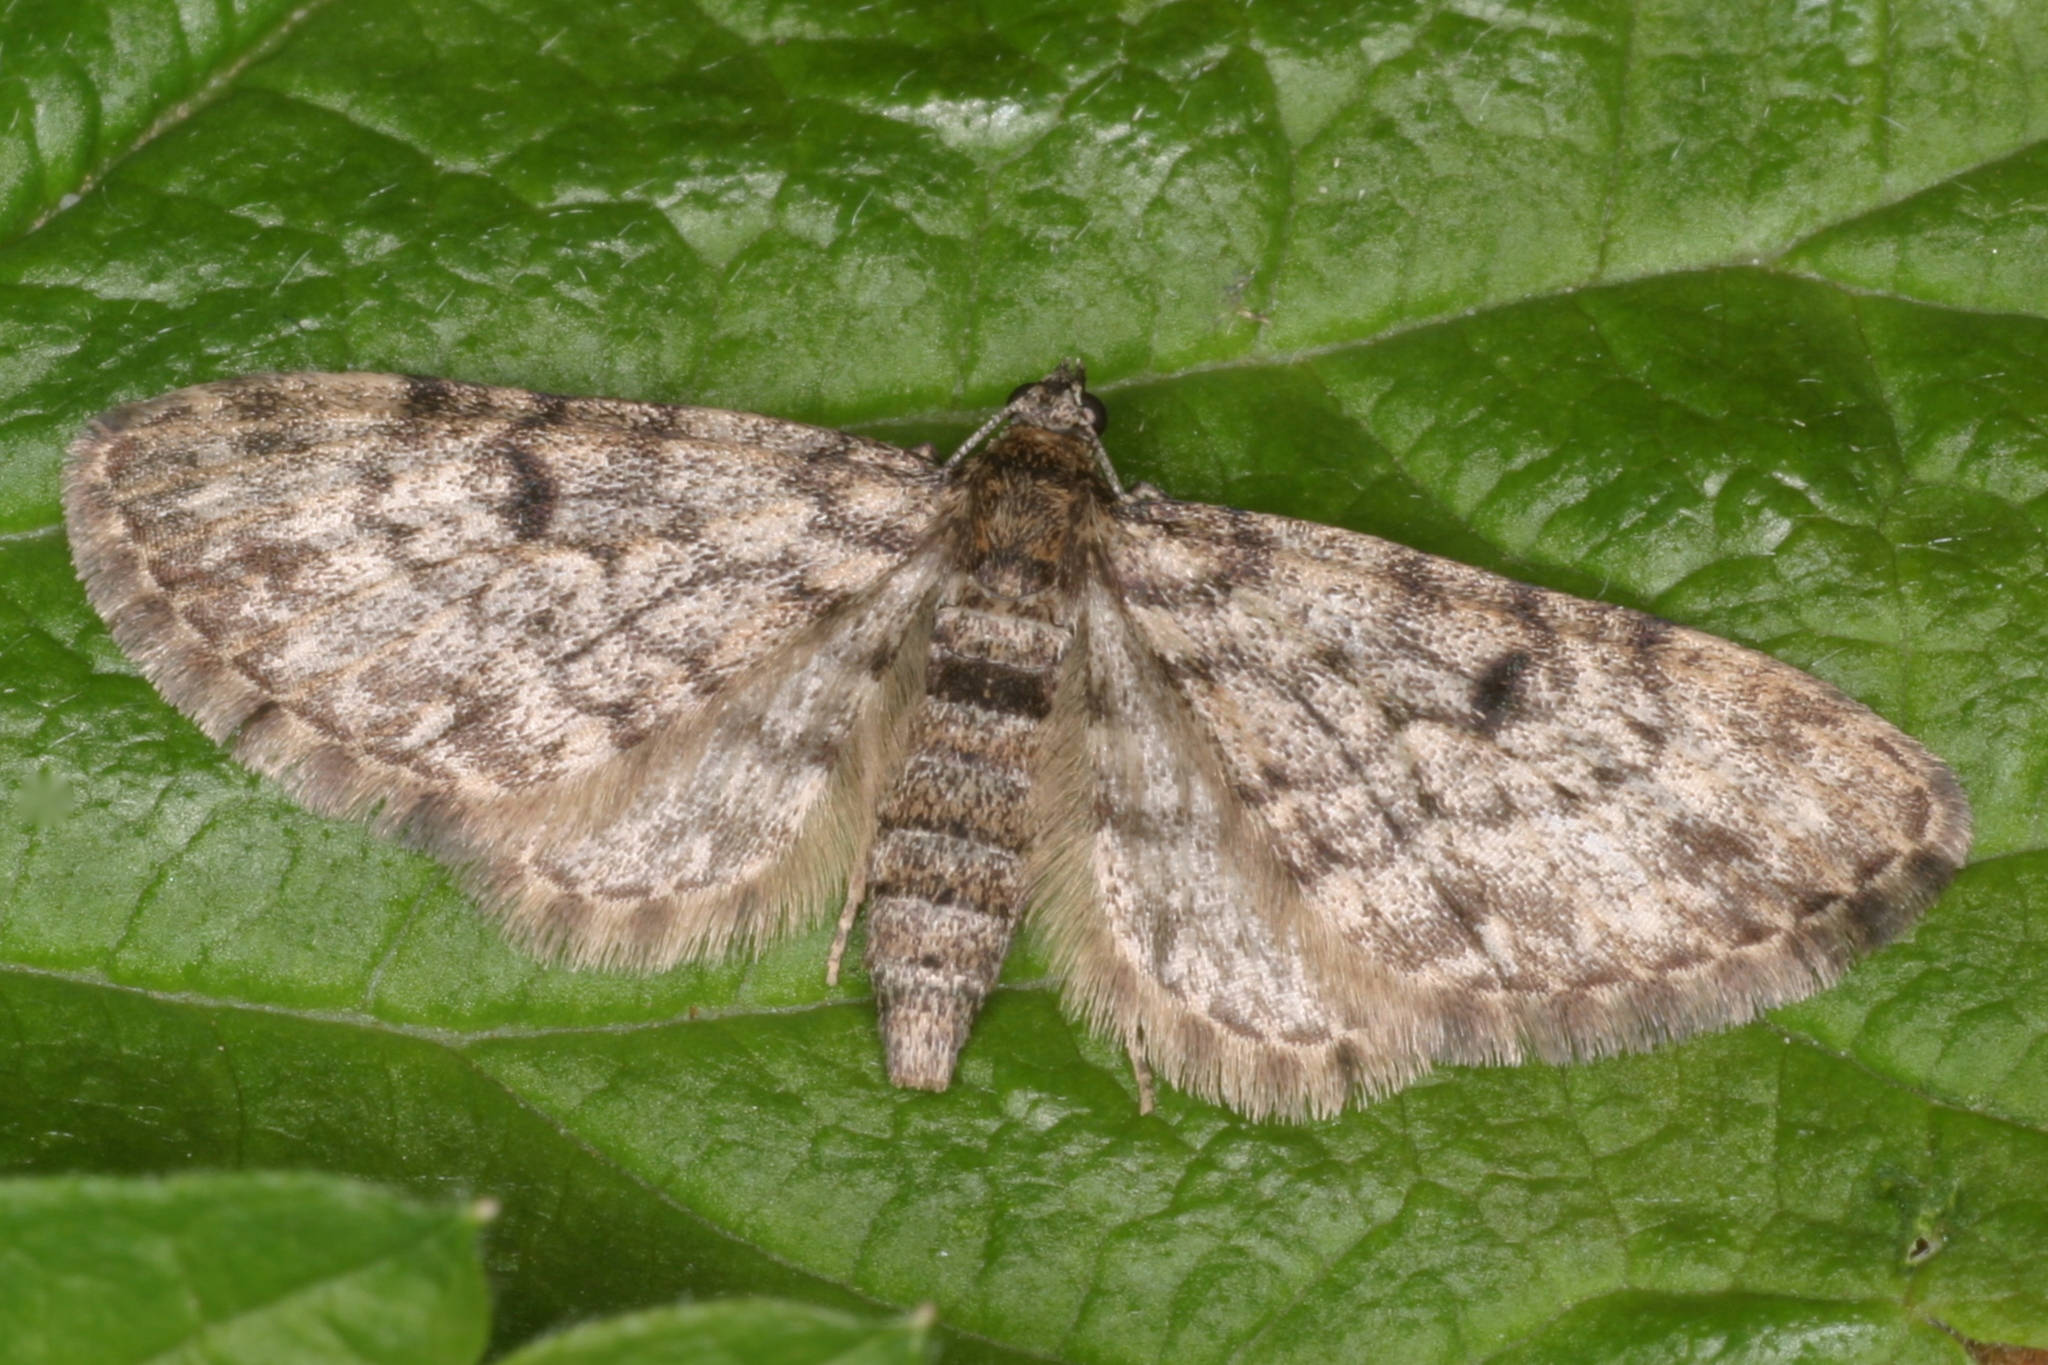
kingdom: Animalia
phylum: Arthropoda
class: Insecta
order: Lepidoptera
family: Geometridae
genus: Eupithecia
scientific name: Eupithecia tantillaria
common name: Dwarf pug
